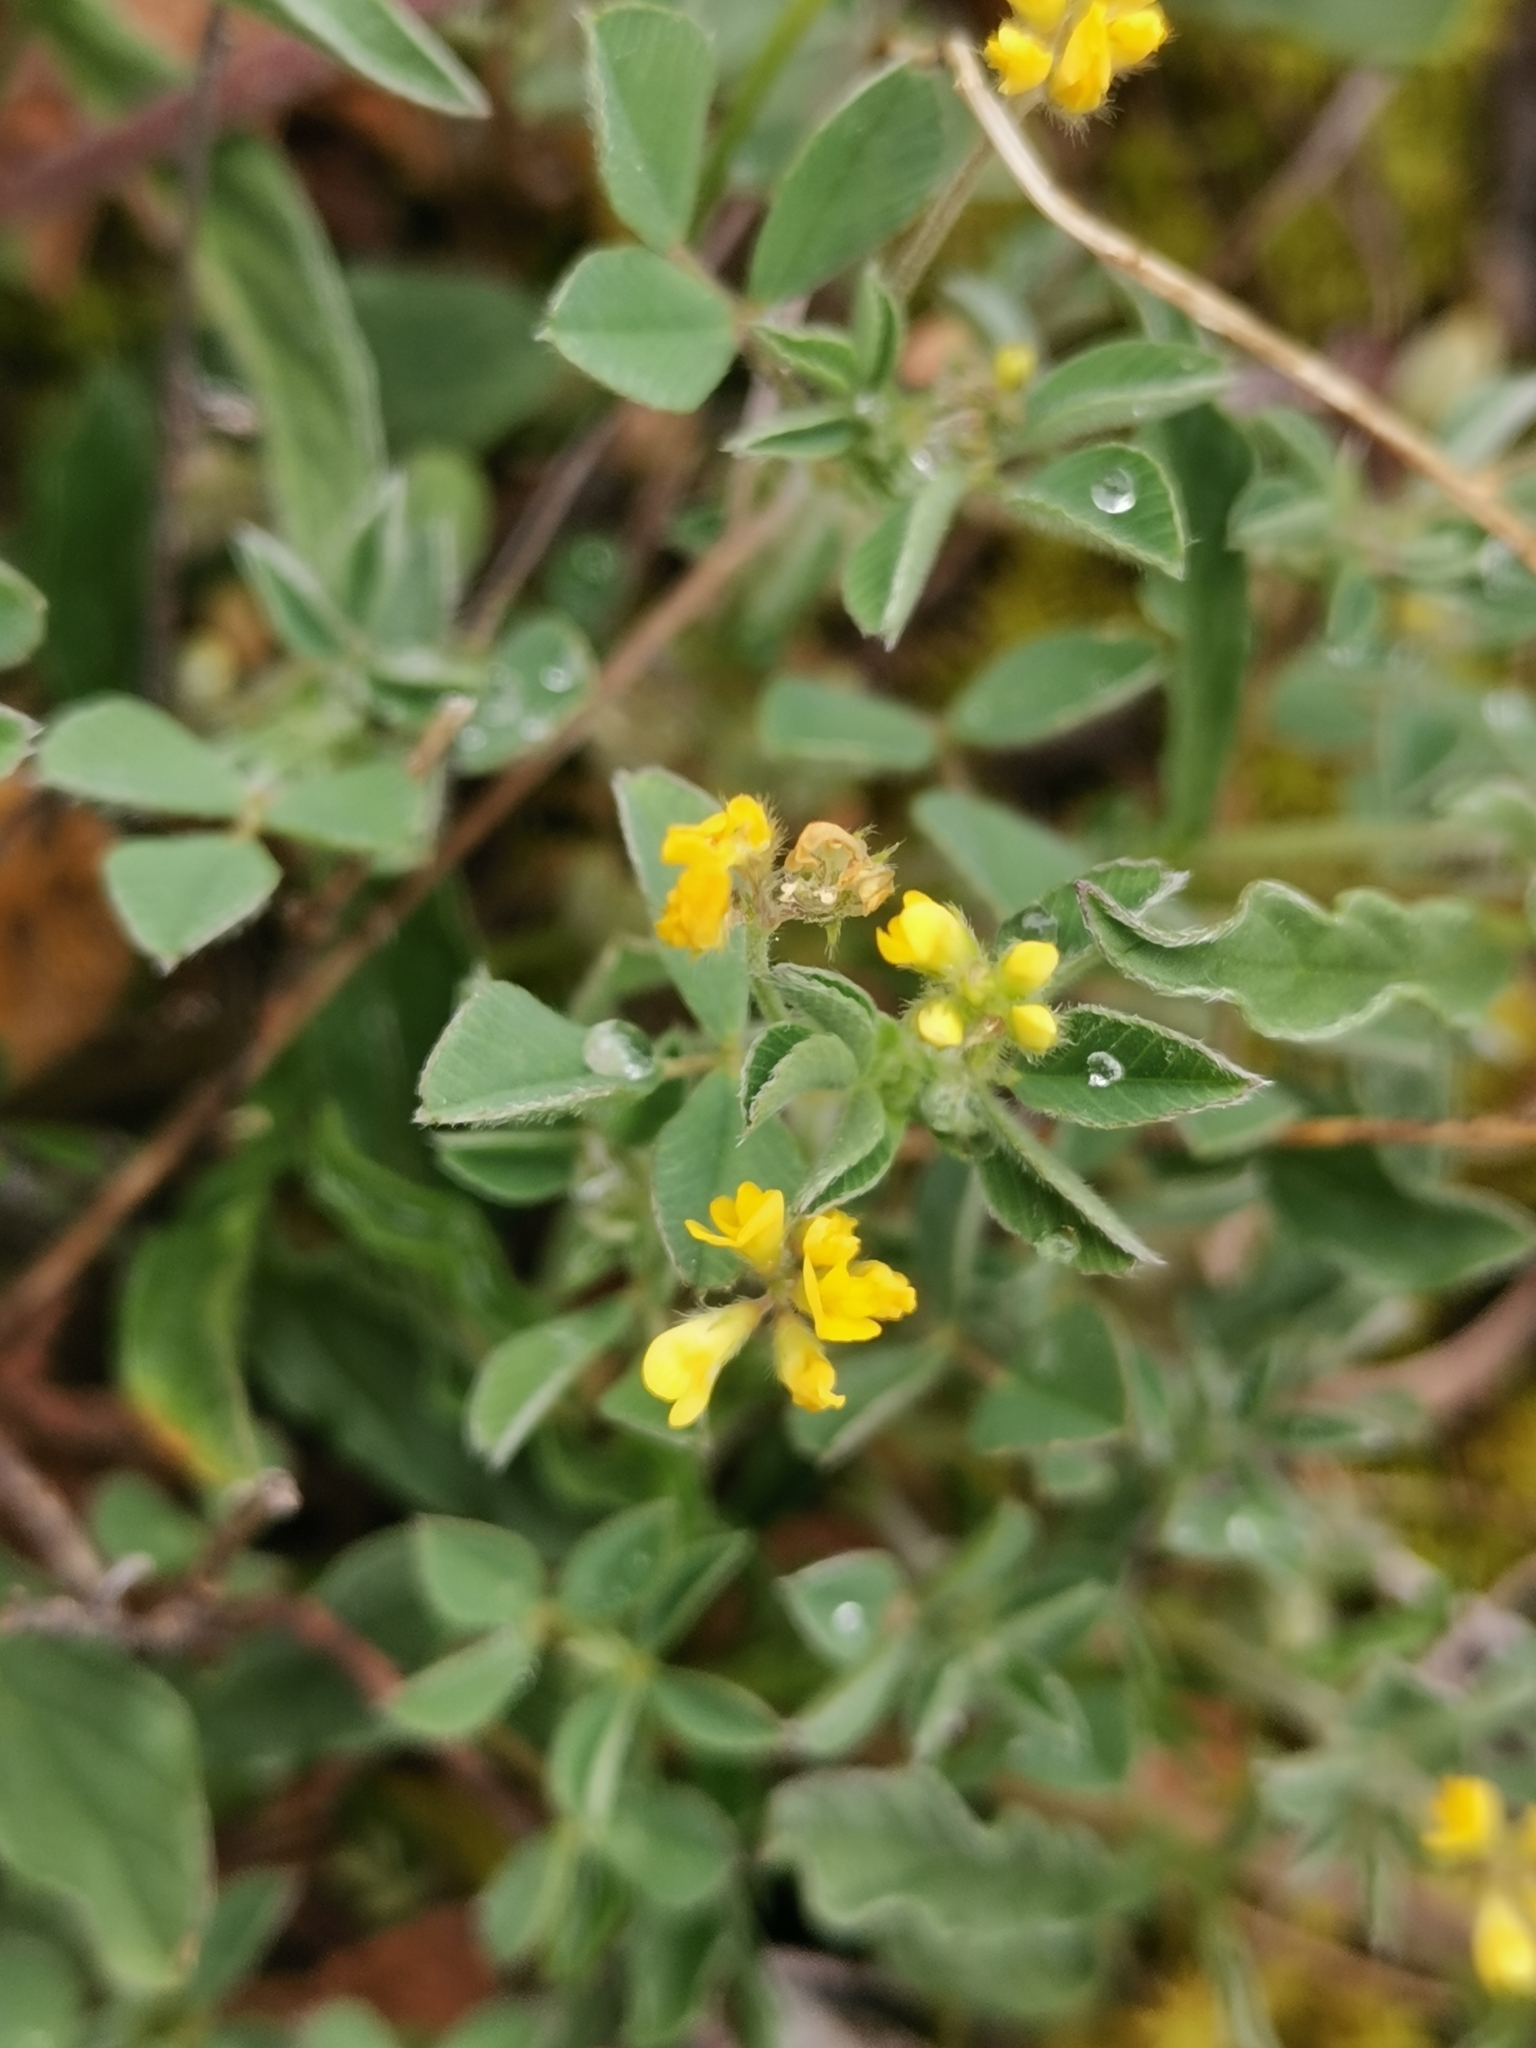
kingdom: Plantae
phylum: Tracheophyta
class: Magnoliopsida
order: Fabales
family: Fabaceae
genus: Medicago
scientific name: Medicago minima
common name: Little bur-clover
